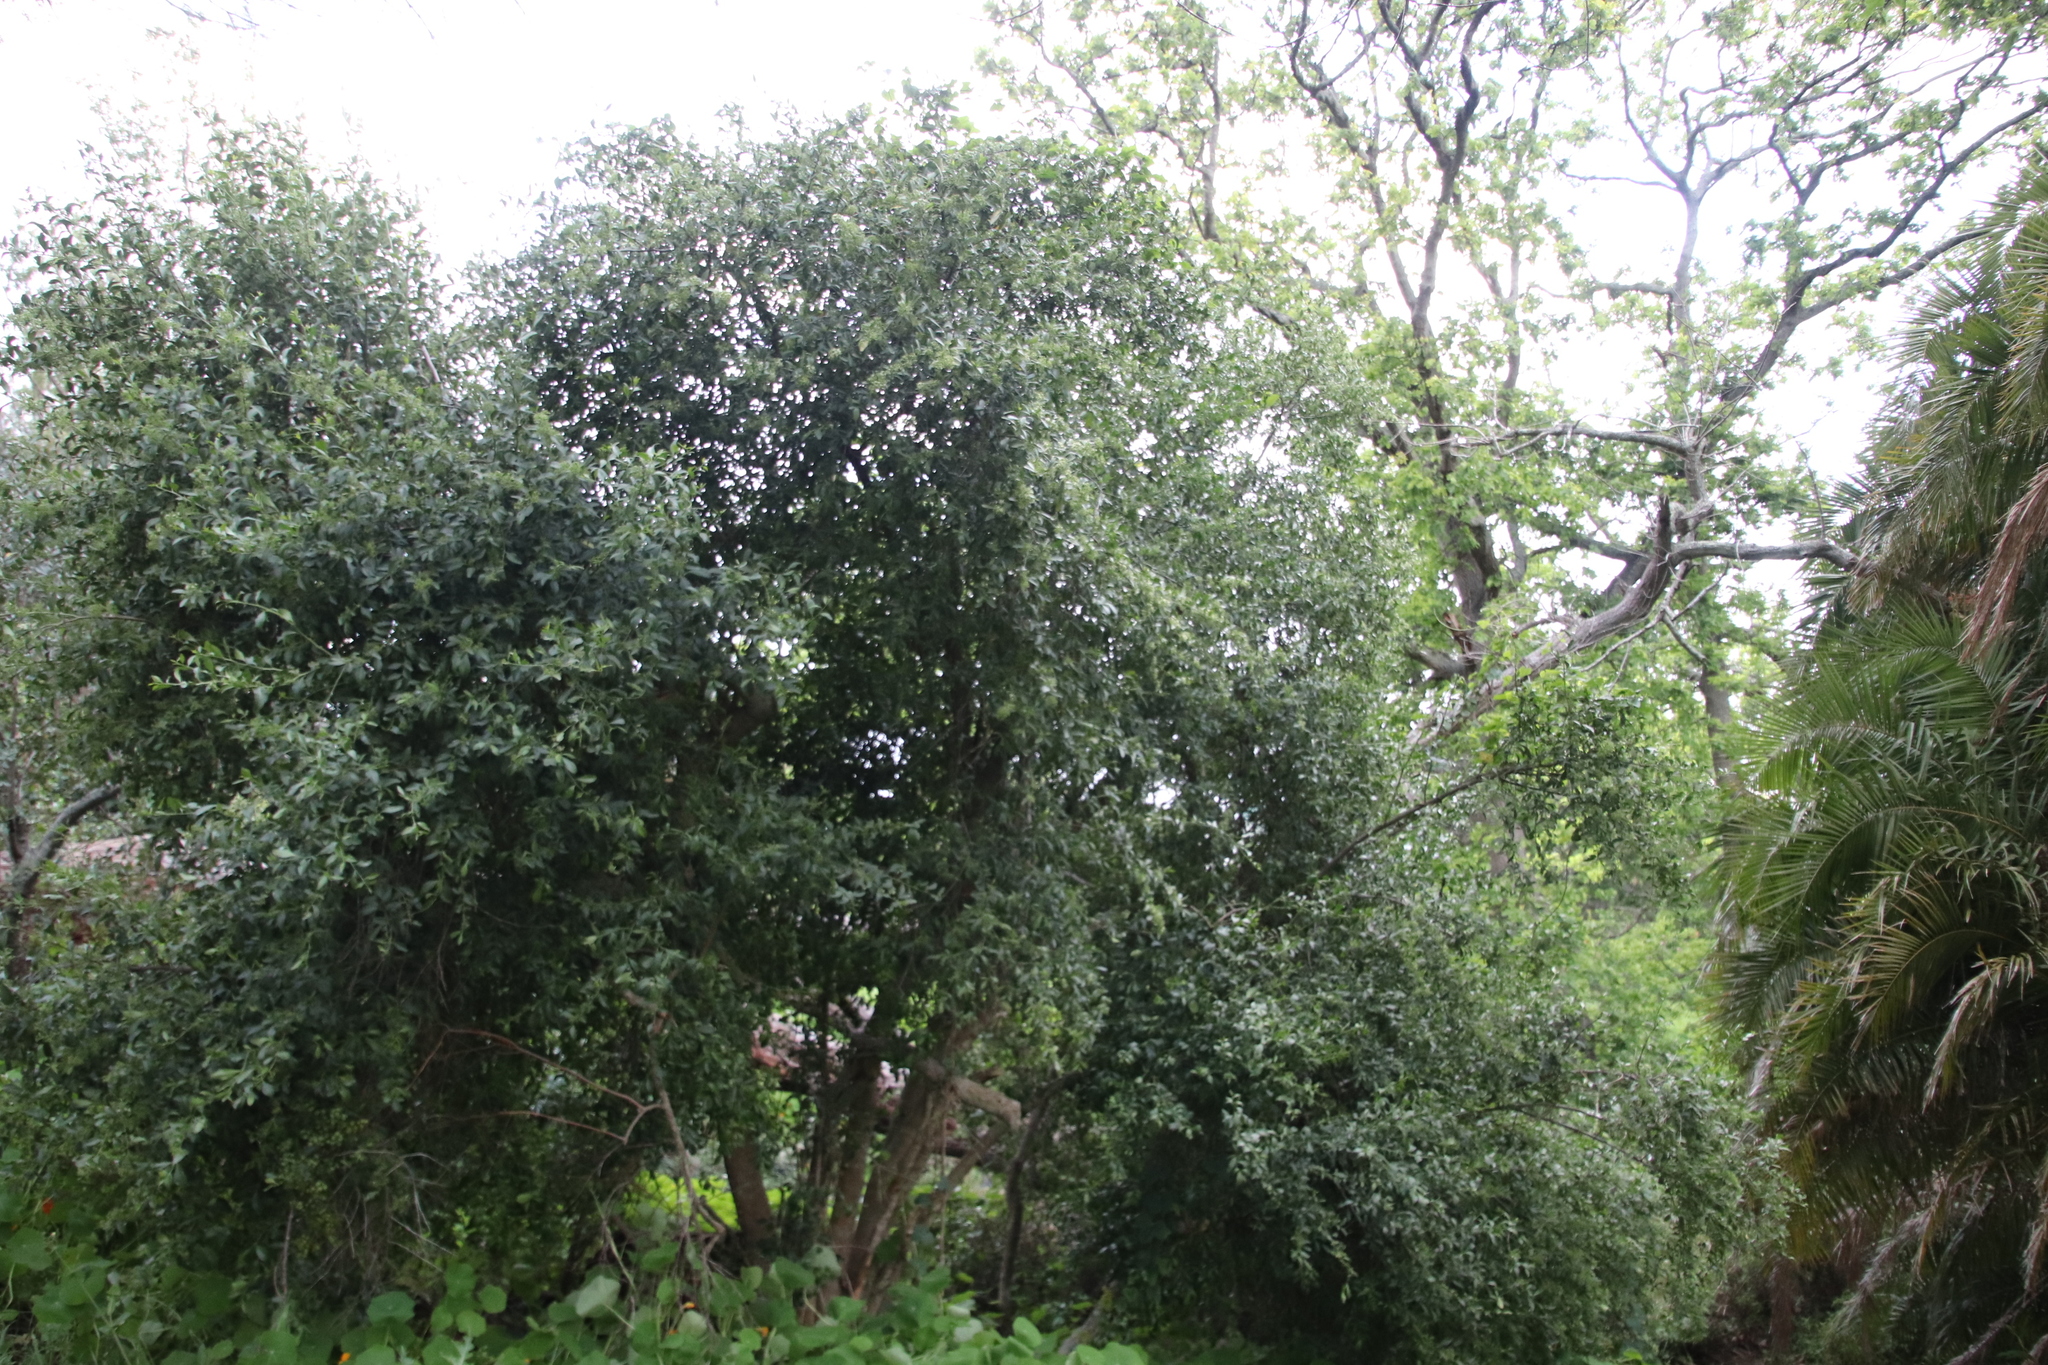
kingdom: Plantae
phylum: Tracheophyta
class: Magnoliopsida
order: Celastrales
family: Celastraceae
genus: Gymnosporia
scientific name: Gymnosporia buxifolia
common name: Common spike-thorn
